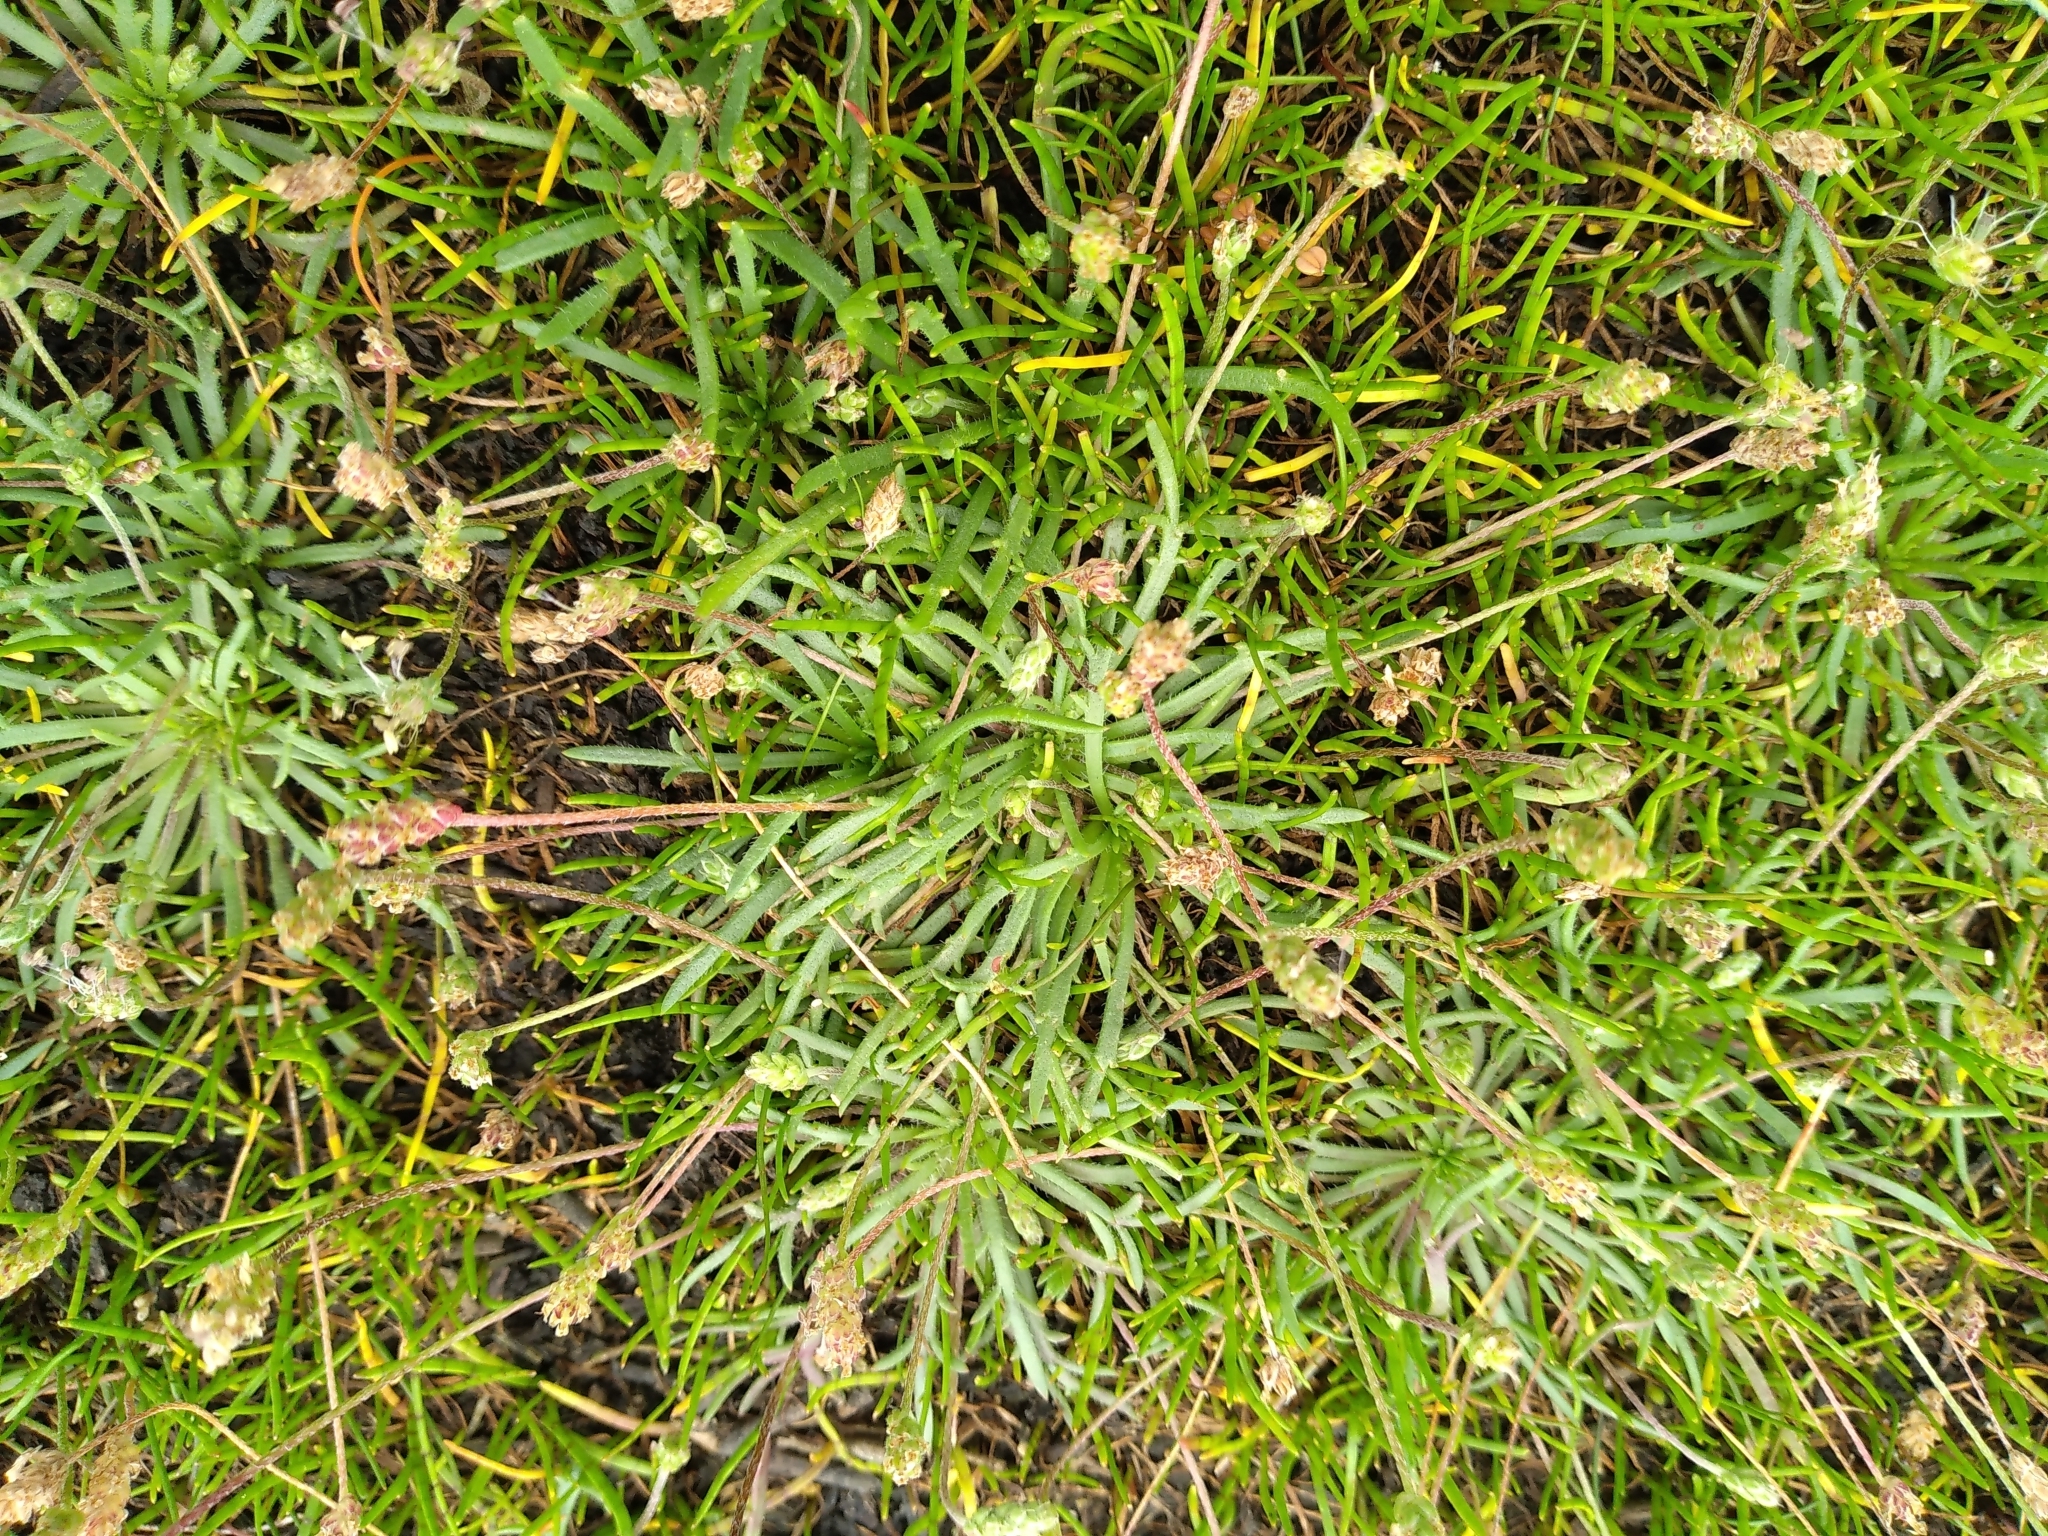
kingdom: Plantae
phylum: Tracheophyta
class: Magnoliopsida
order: Lamiales
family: Plantaginaceae
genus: Plantago
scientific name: Plantago coronopus
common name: Buck's-horn plantain
